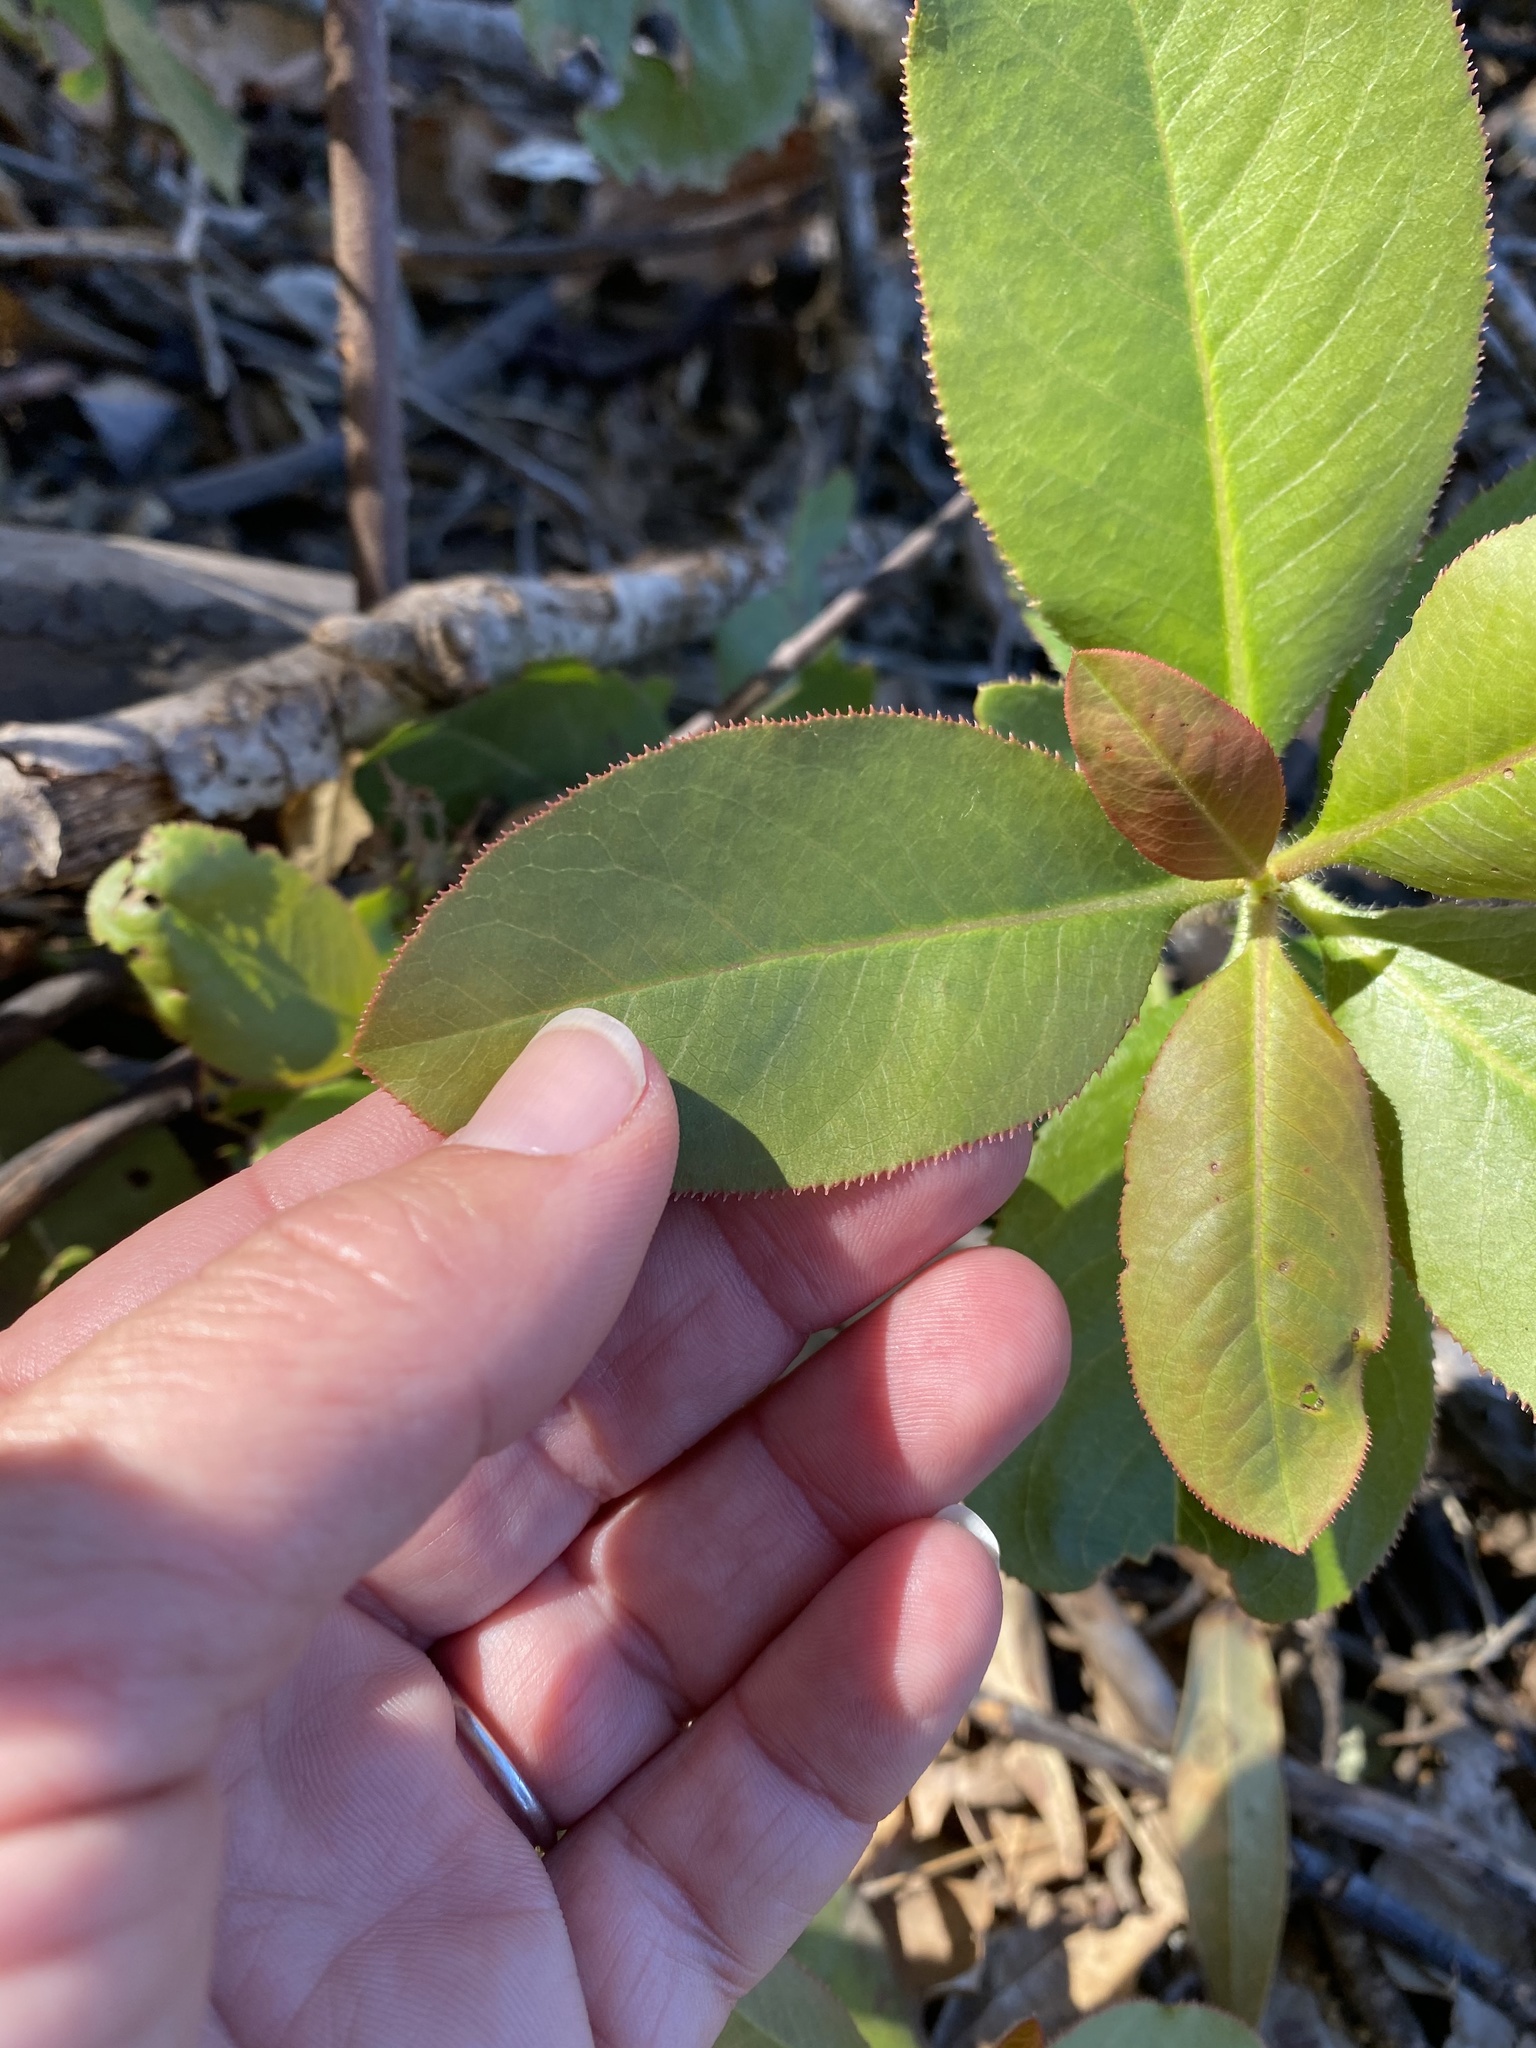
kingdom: Plantae
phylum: Tracheophyta
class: Magnoliopsida
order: Ericales
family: Ericaceae
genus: Arbutus
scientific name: Arbutus menziesii
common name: Pacific madrone
